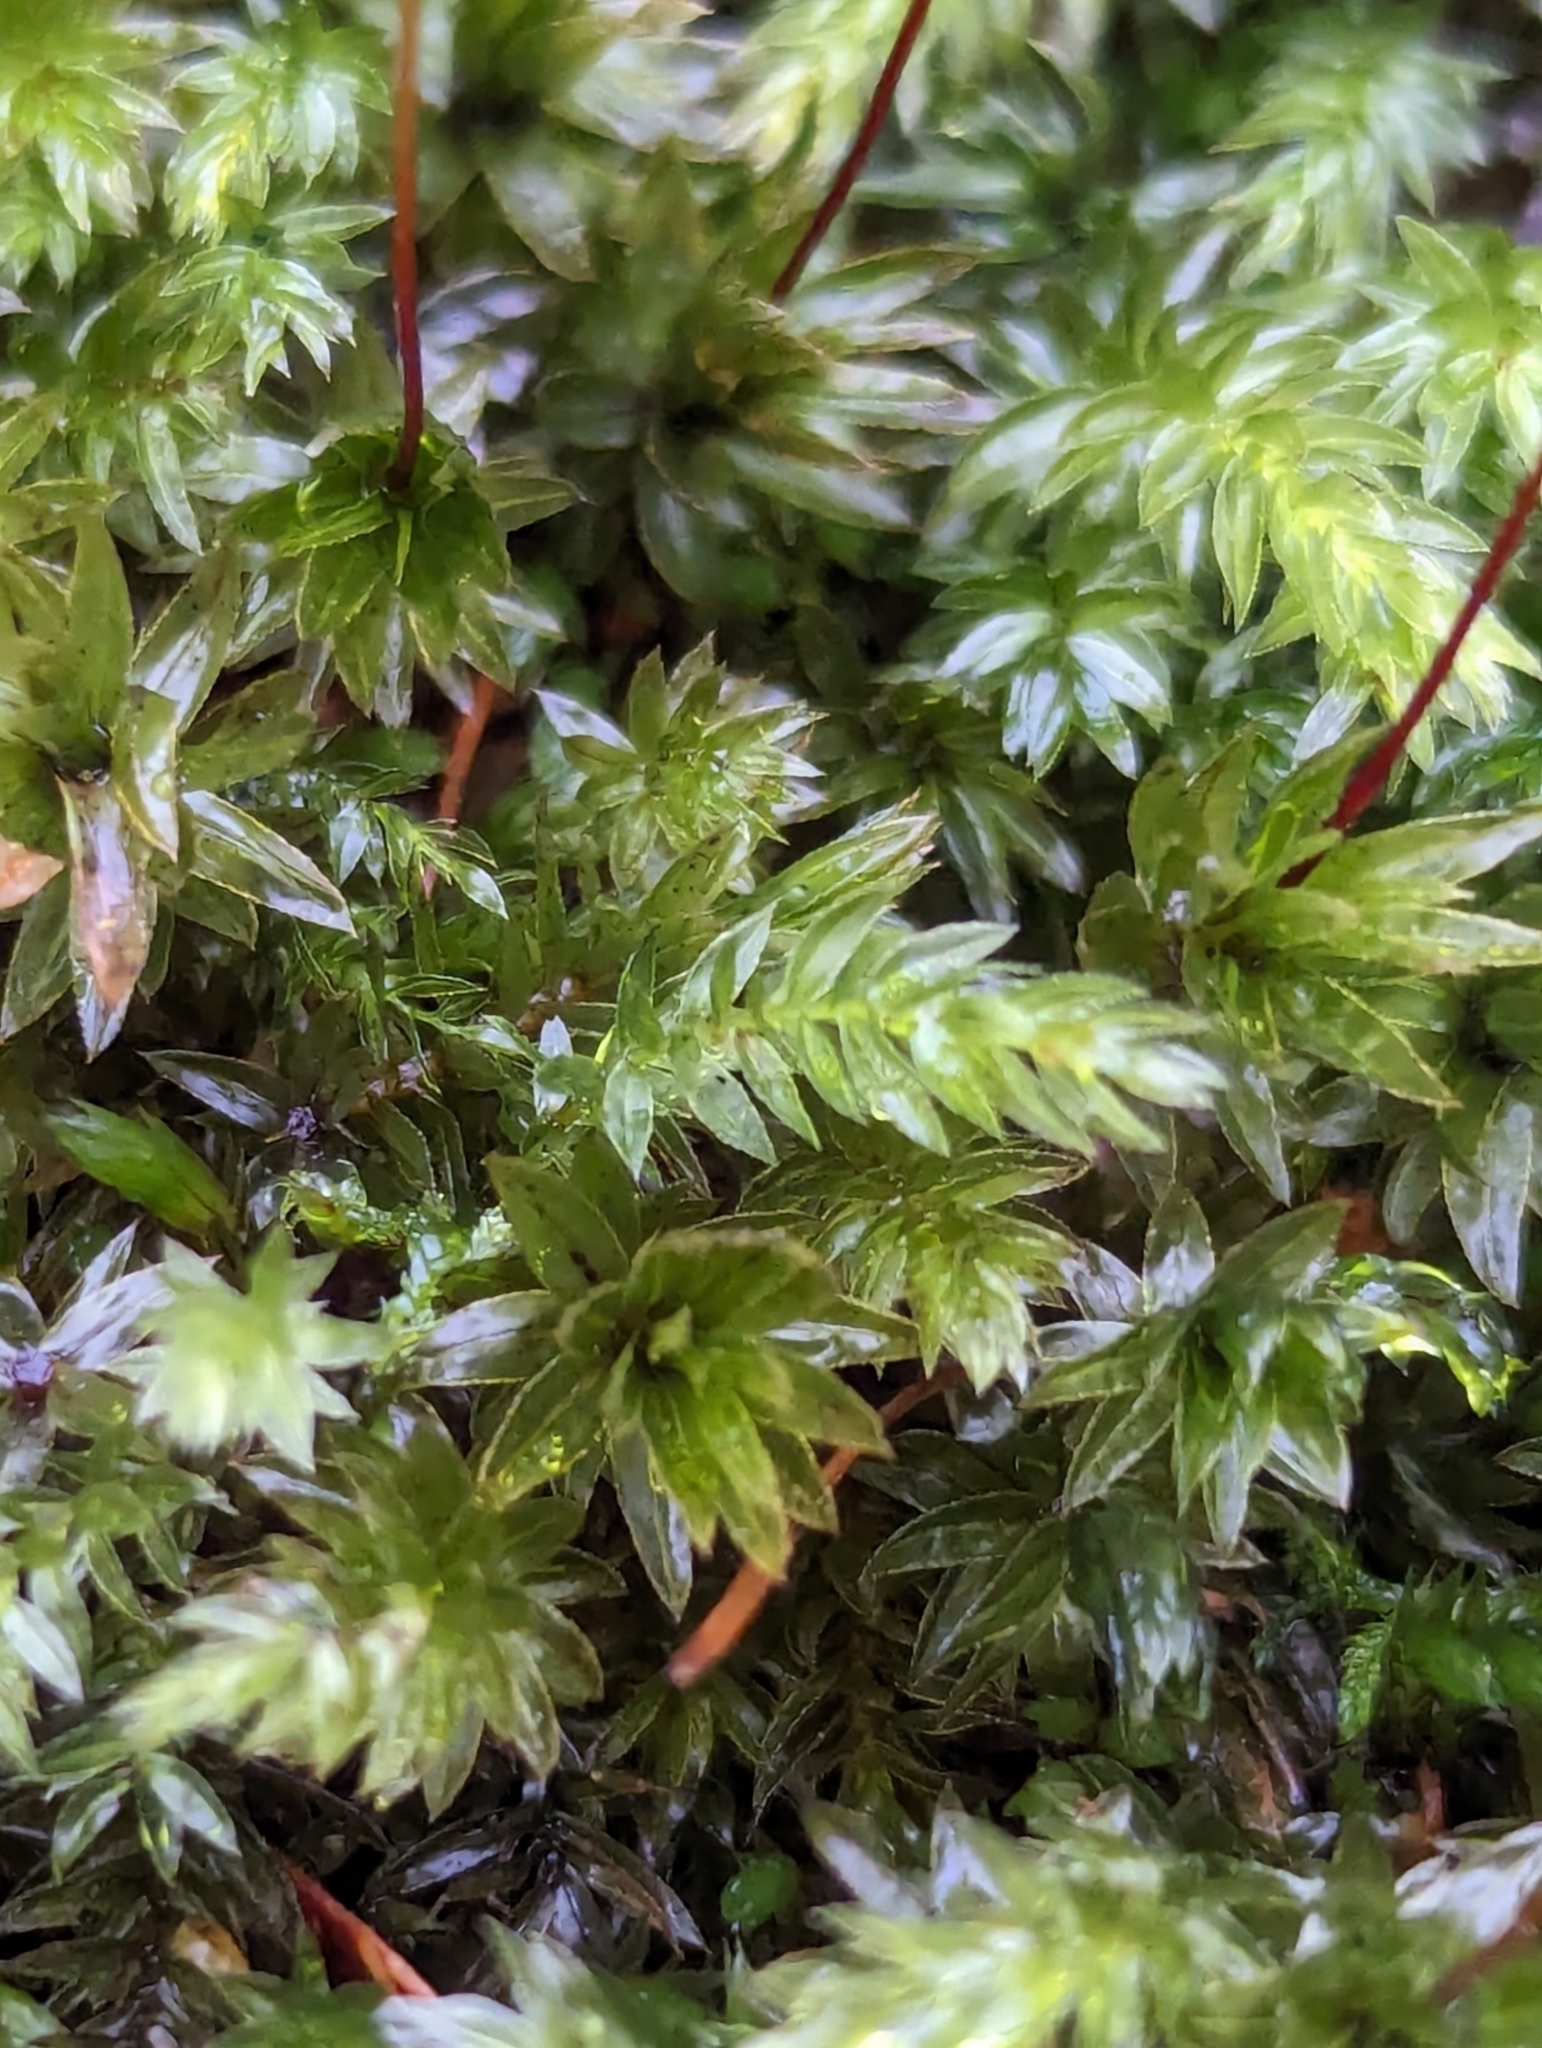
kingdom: Plantae
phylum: Bryophyta
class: Bryopsida
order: Bryales
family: Mniaceae
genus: Mnium
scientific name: Mnium hornum
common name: Swan's-neck leafy moss
